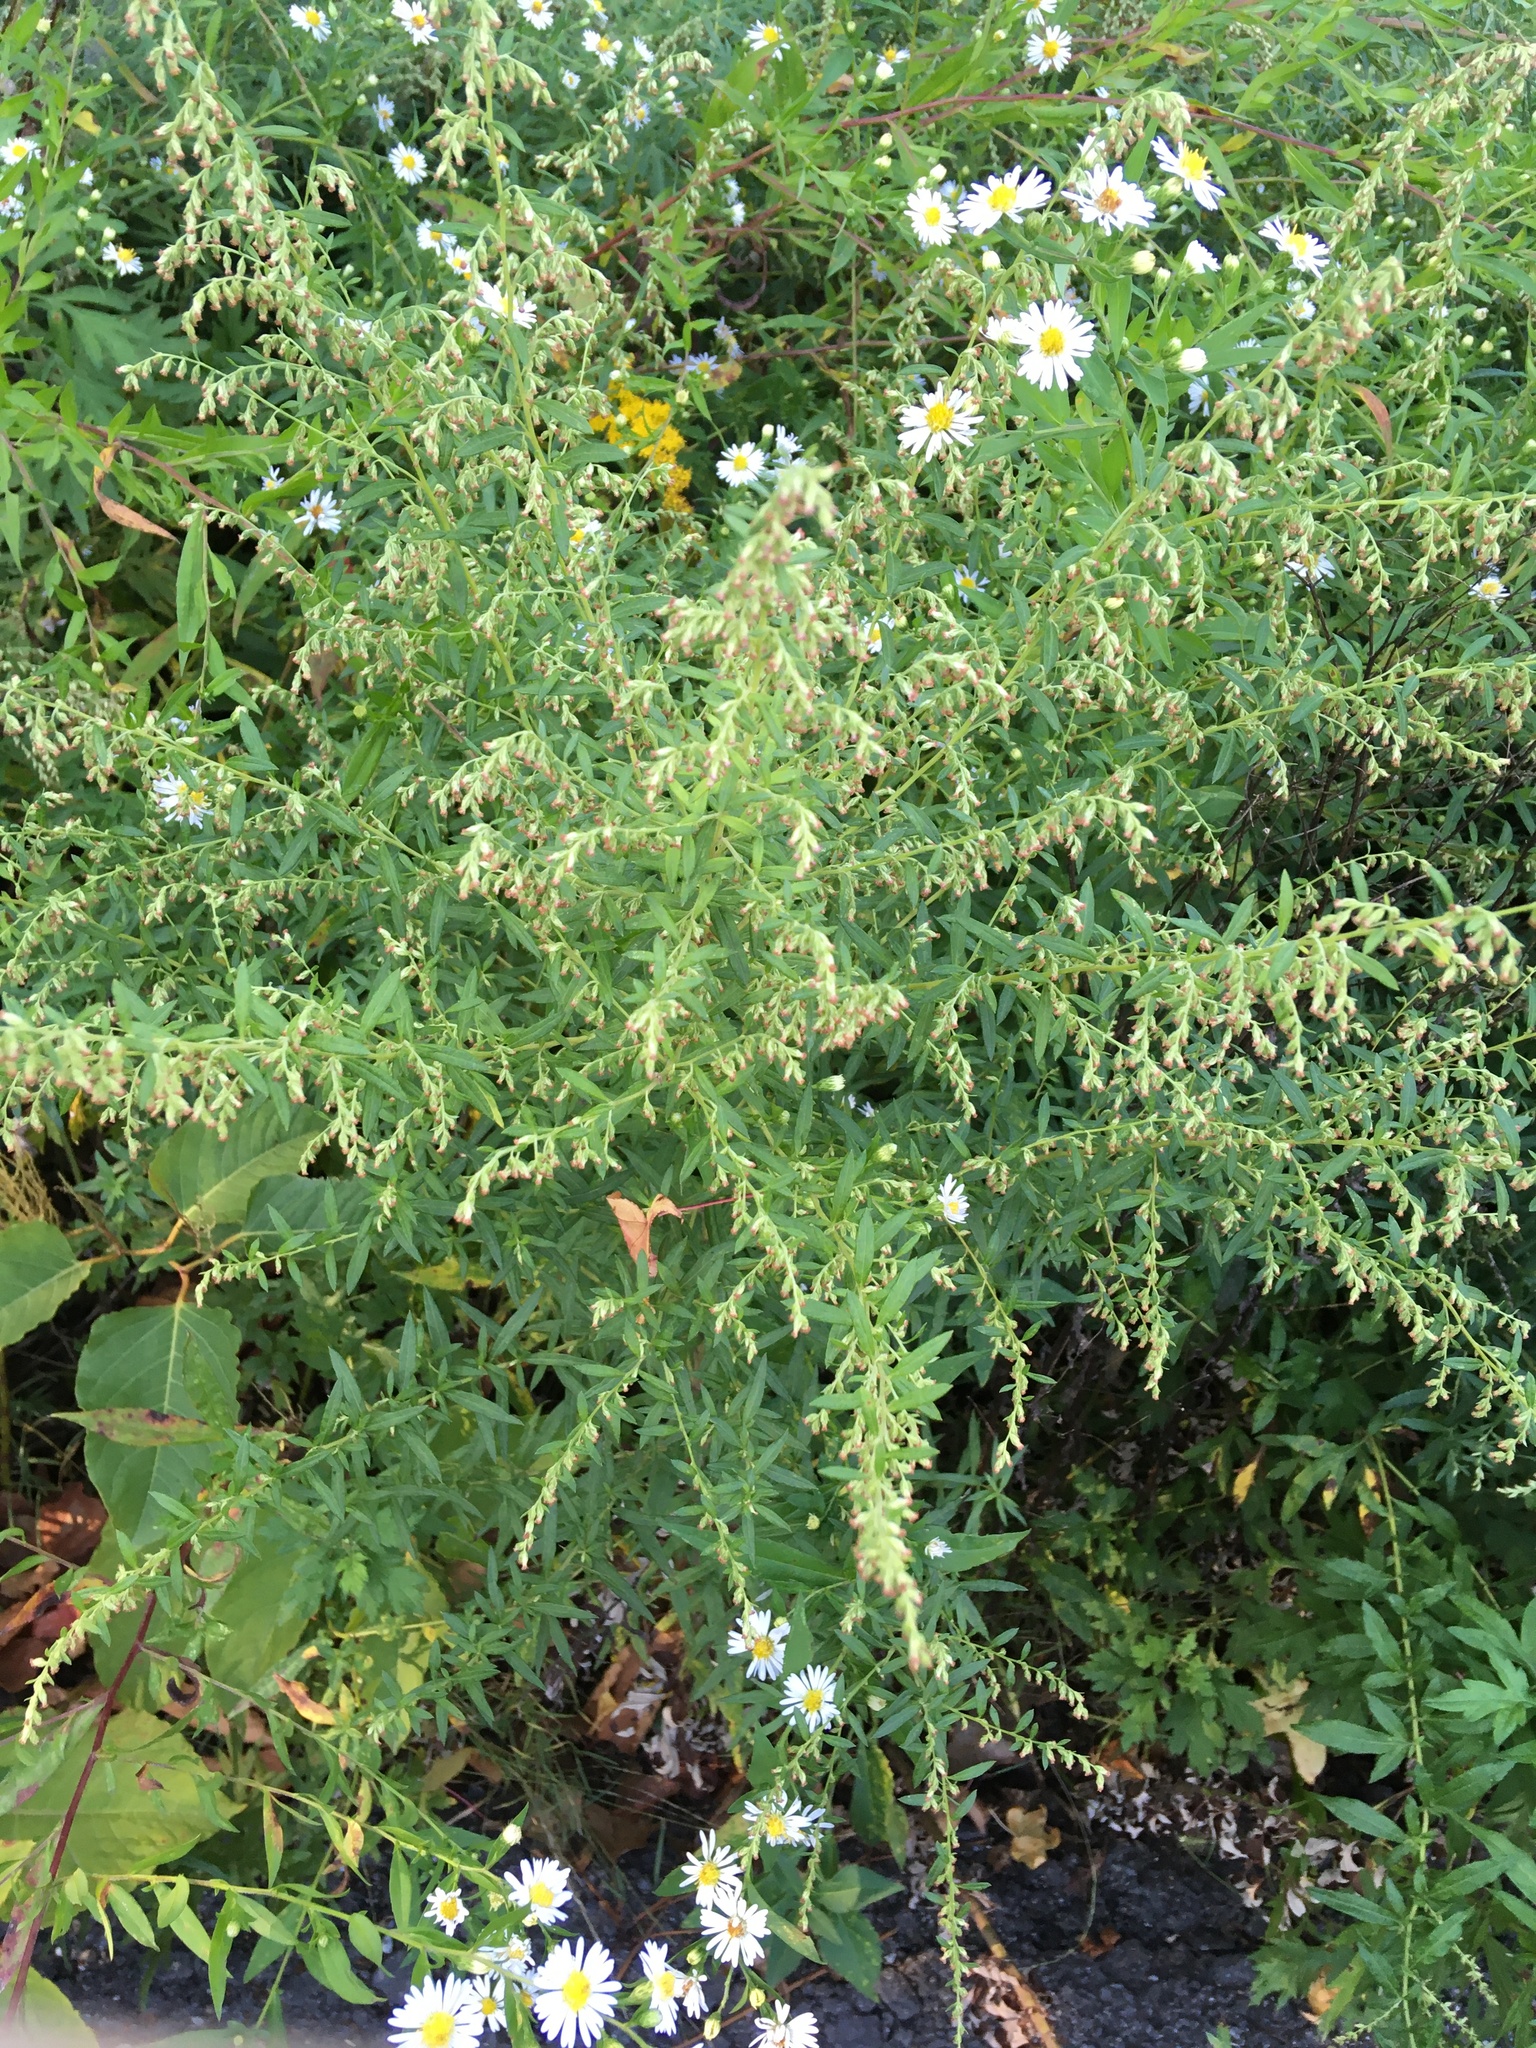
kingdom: Plantae
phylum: Tracheophyta
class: Magnoliopsida
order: Asterales
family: Asteraceae
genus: Artemisia
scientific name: Artemisia vulgaris
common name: Mugwort
